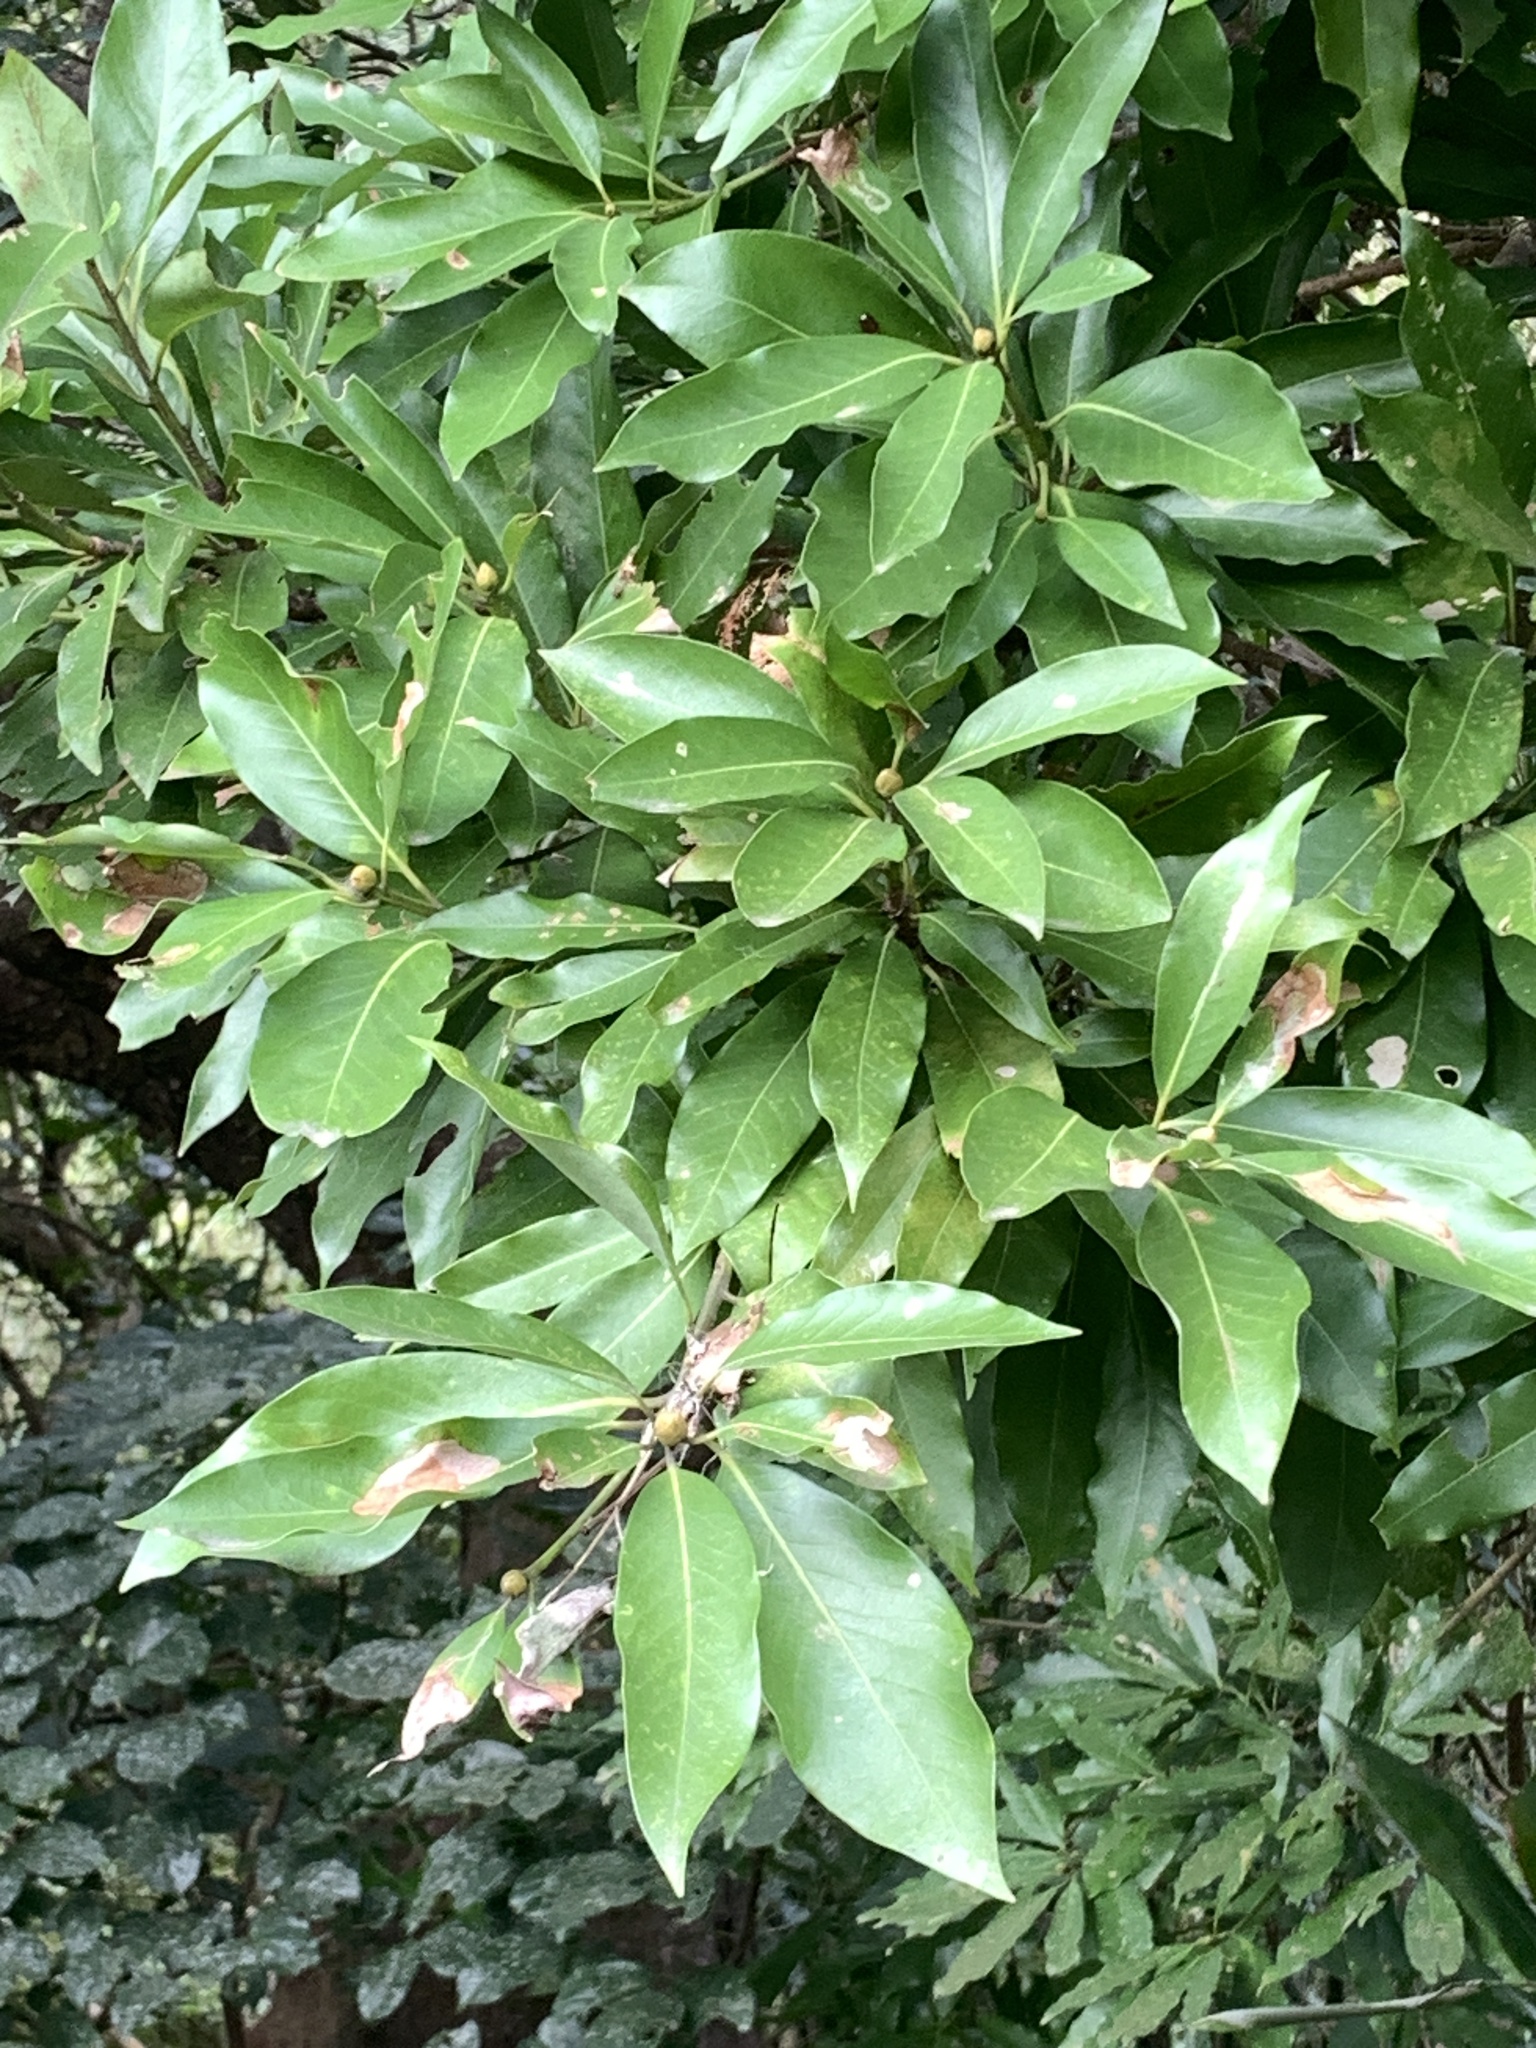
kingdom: Plantae
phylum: Tracheophyta
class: Magnoliopsida
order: Laurales
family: Lauraceae
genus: Machilus
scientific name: Machilus japonica
